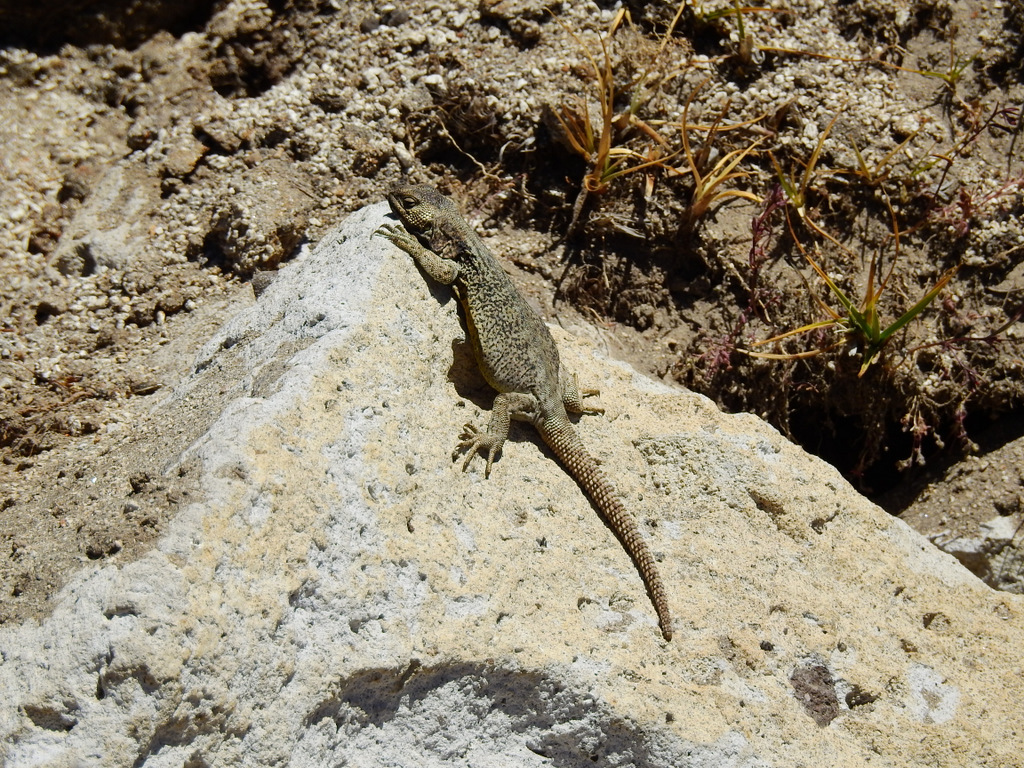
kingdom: Animalia
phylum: Chordata
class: Squamata
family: Liolaemidae
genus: Phymaturus
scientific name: Phymaturus verdugo
